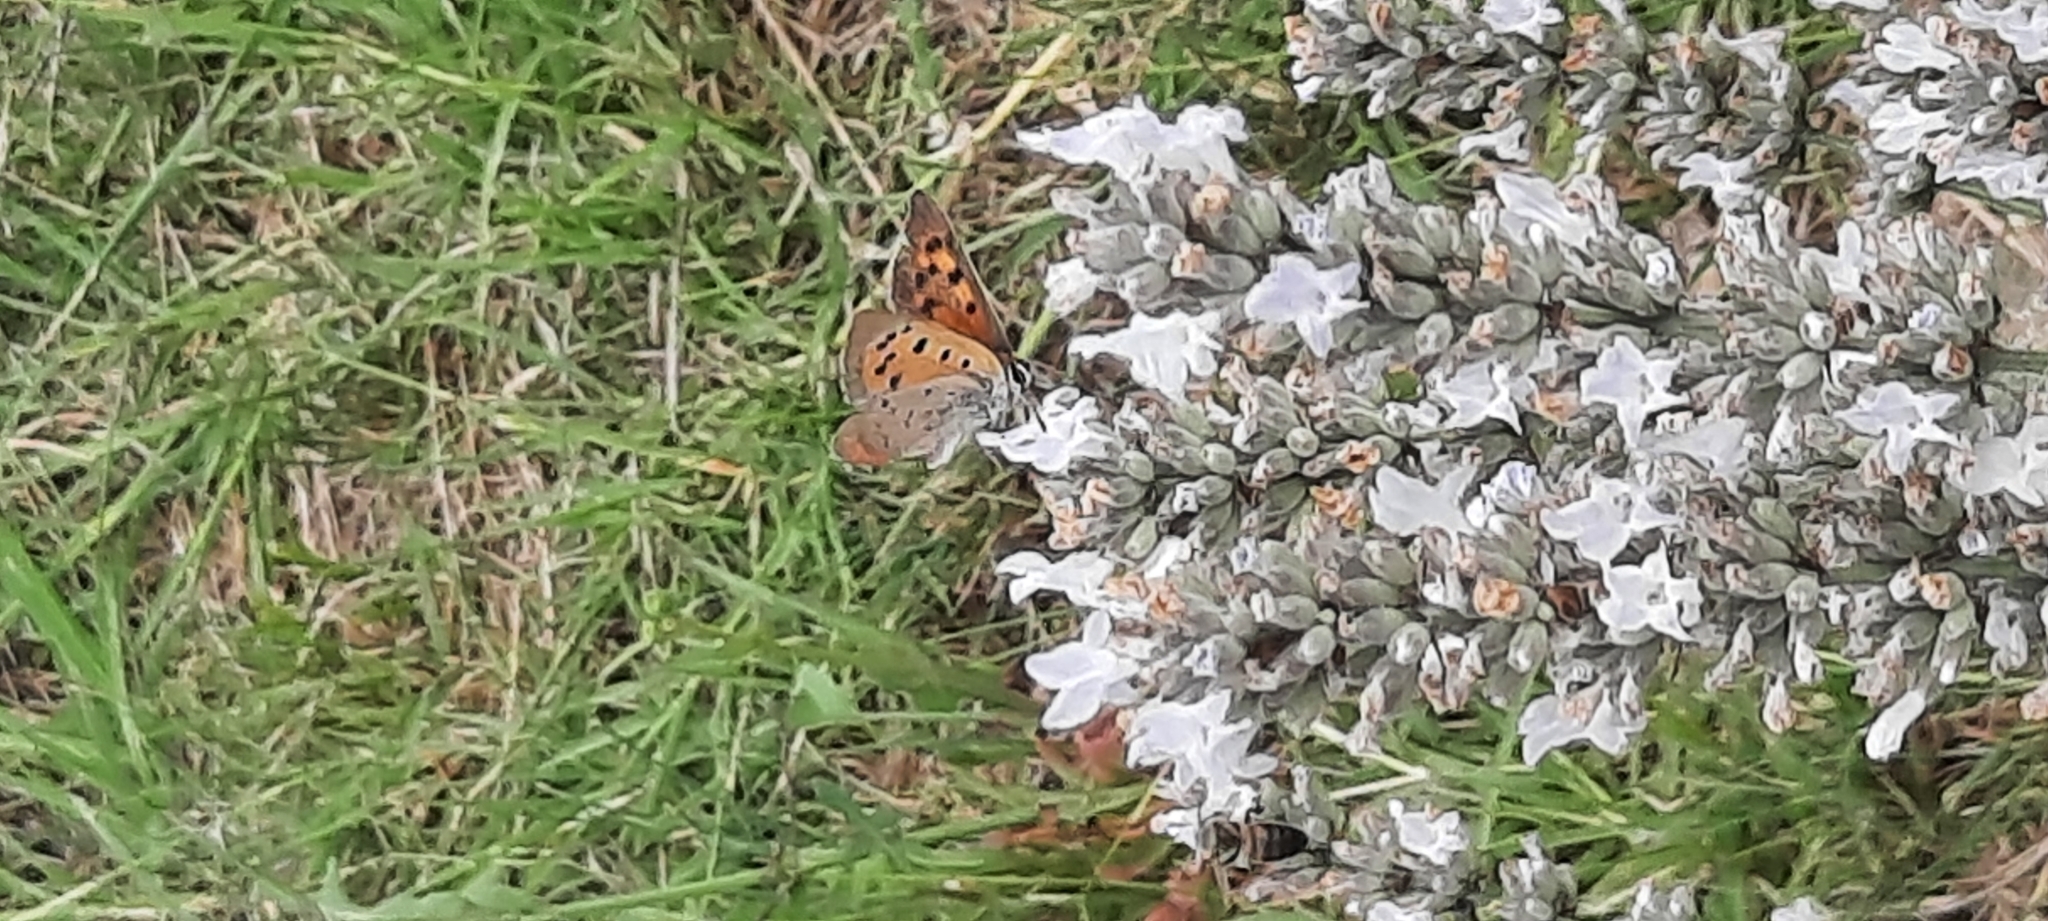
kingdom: Animalia
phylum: Arthropoda
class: Insecta
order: Lepidoptera
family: Lycaenidae
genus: Lycaena
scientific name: Lycaena phlaeas
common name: Small copper
